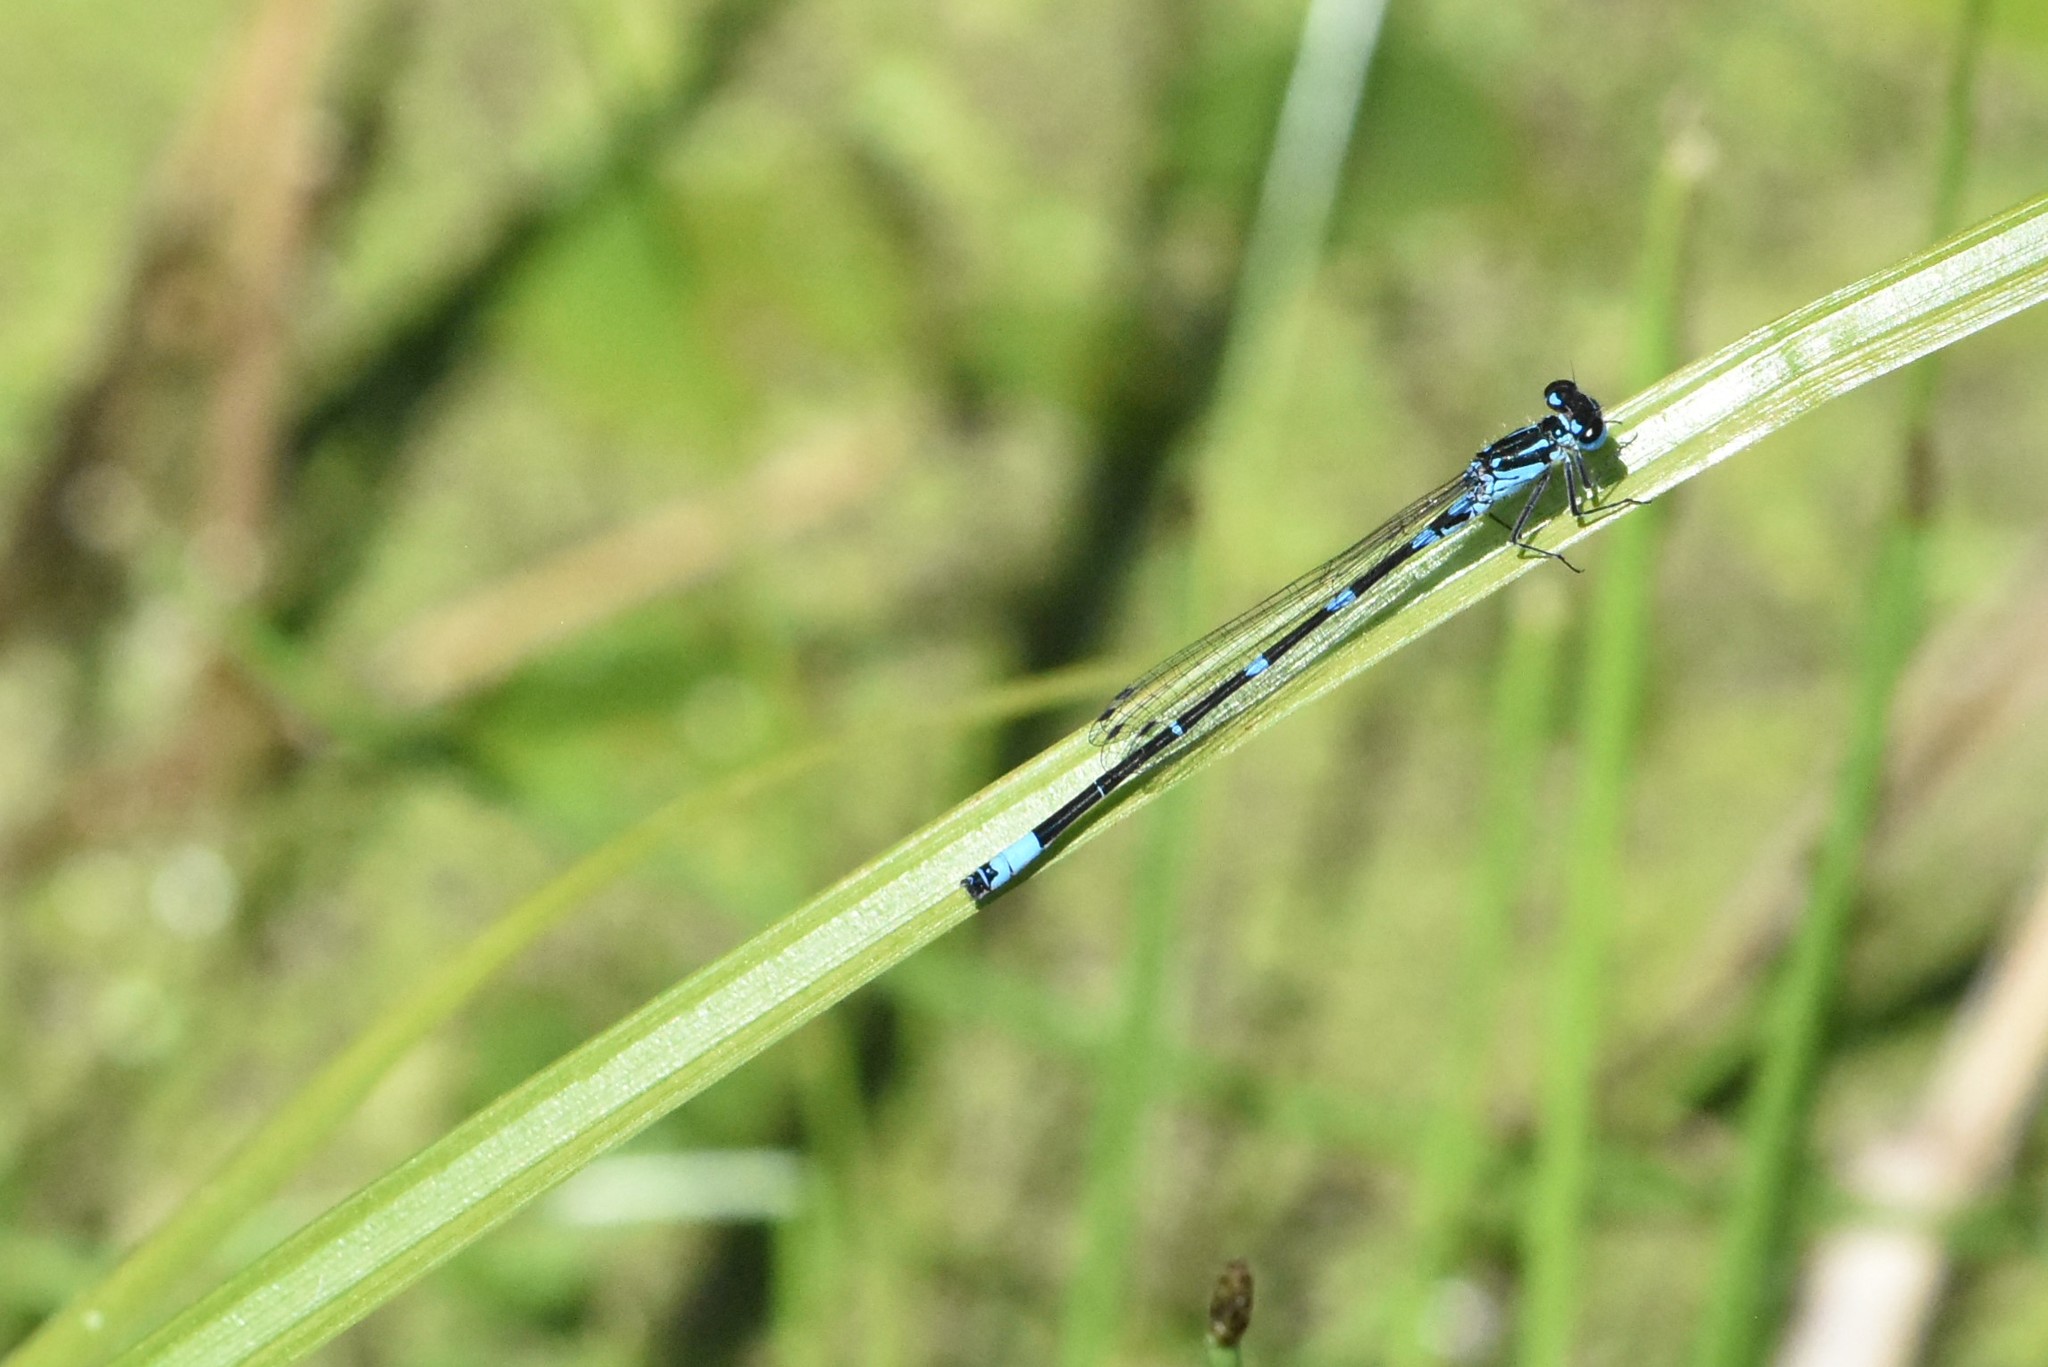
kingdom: Animalia
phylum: Arthropoda
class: Insecta
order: Odonata
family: Coenagrionidae
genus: Coenagrion
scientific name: Coenagrion pulchellum
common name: Variable bluet
